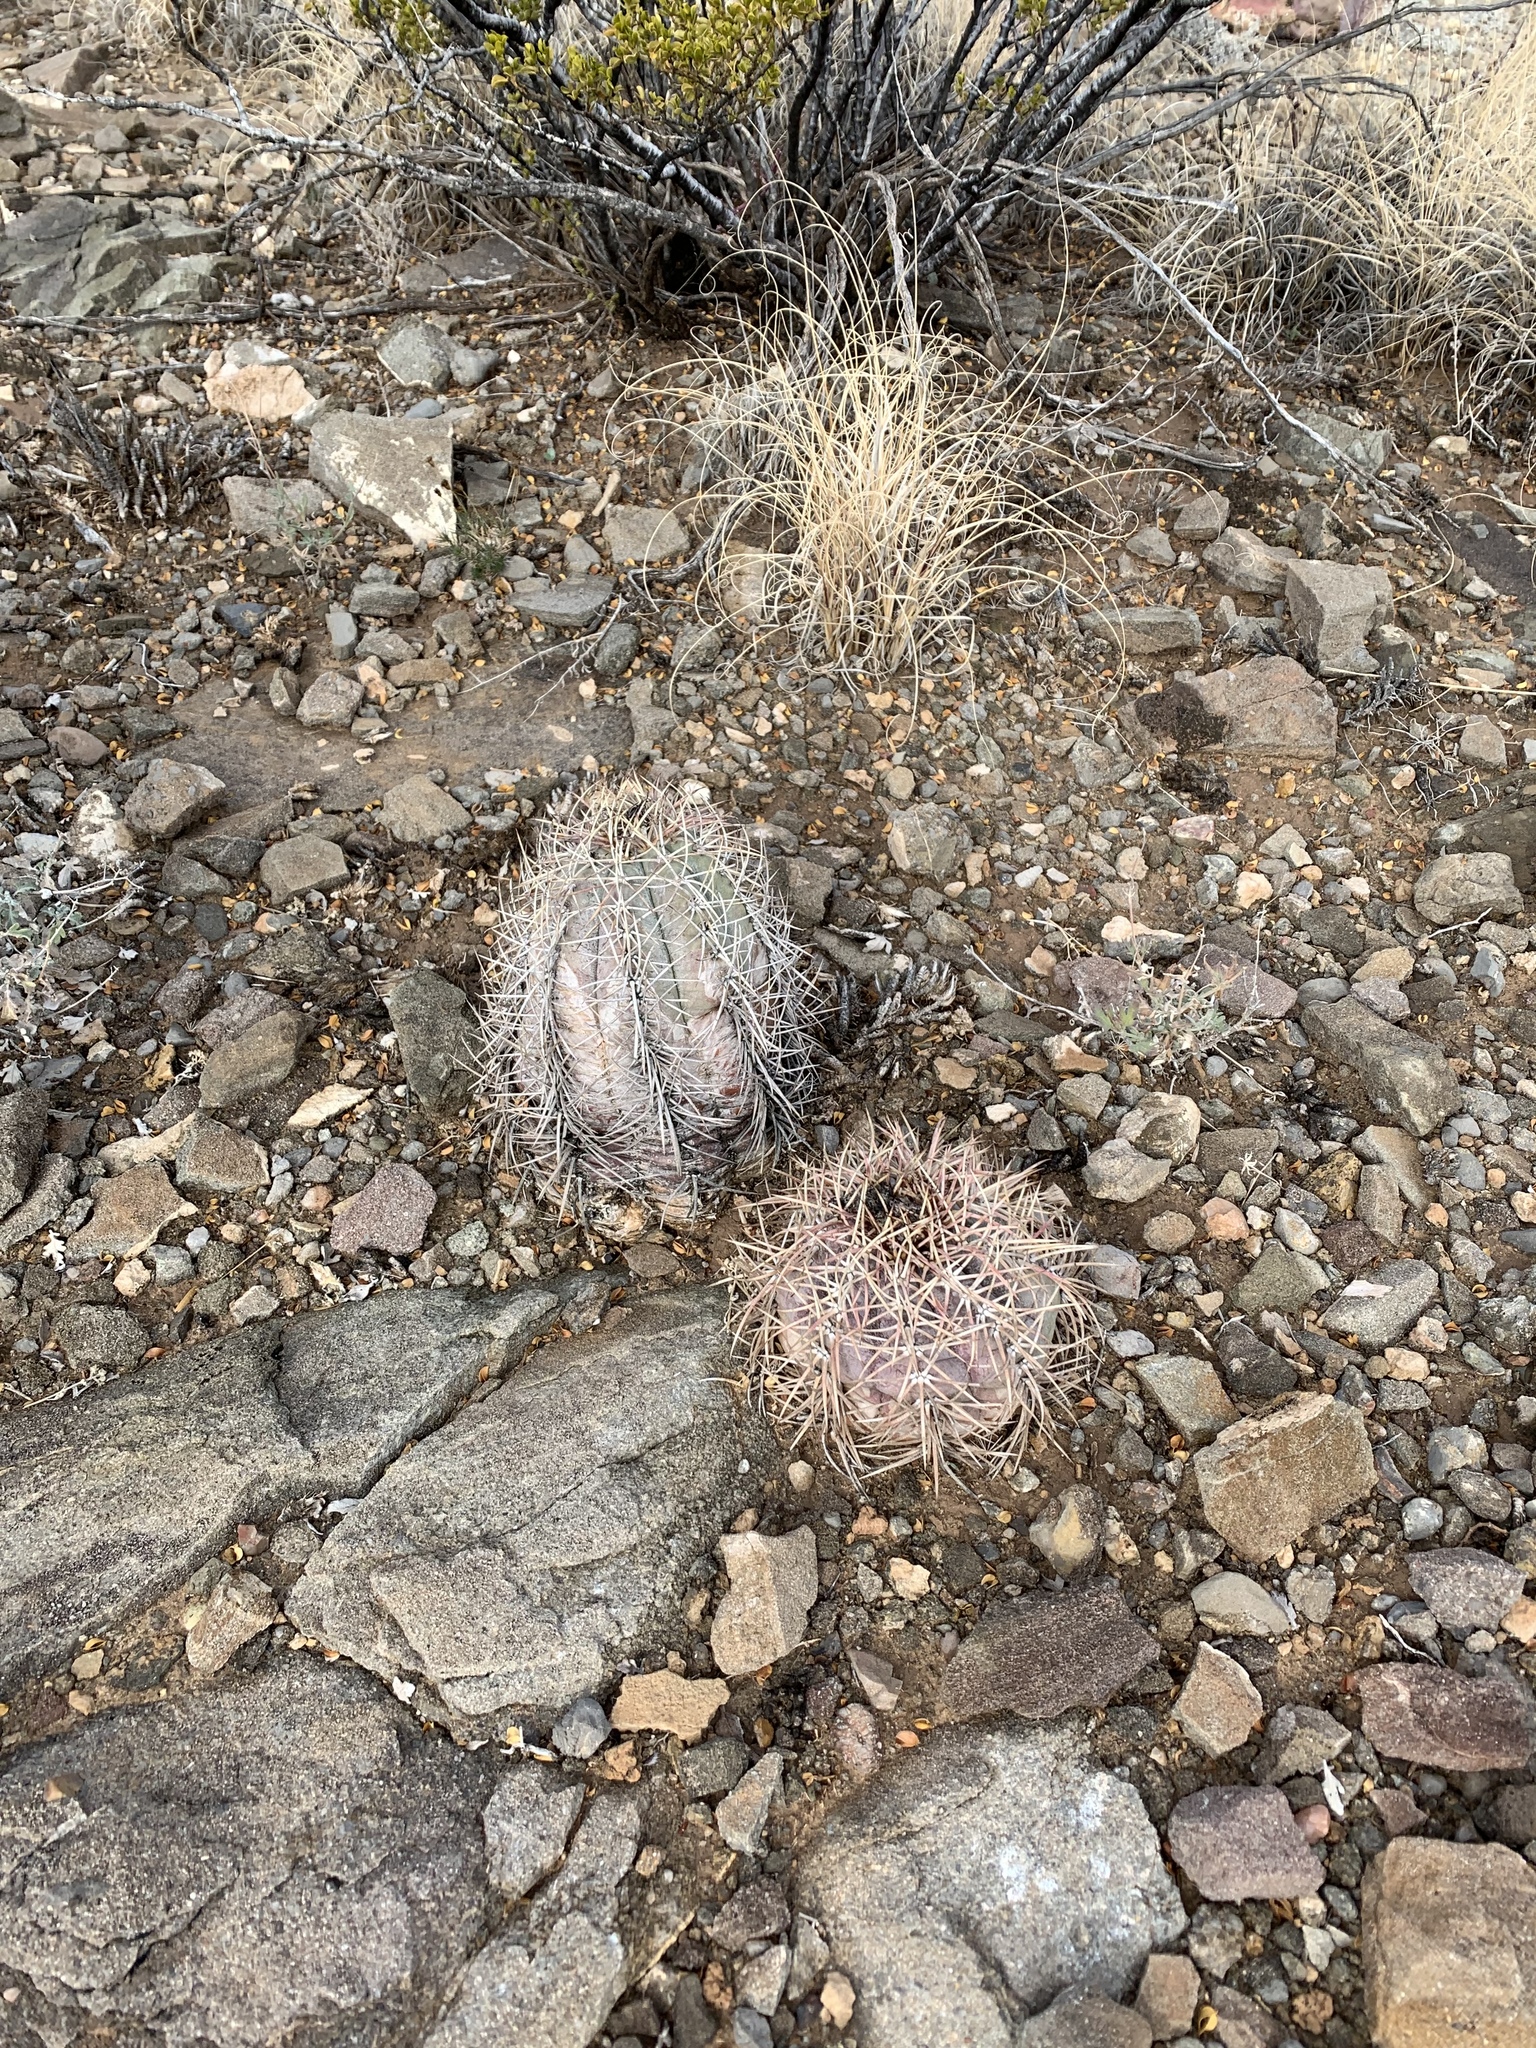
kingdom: Plantae
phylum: Tracheophyta
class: Magnoliopsida
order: Caryophyllales
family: Cactaceae
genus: Echinocactus
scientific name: Echinocactus horizonthalonius
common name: Devilshead
